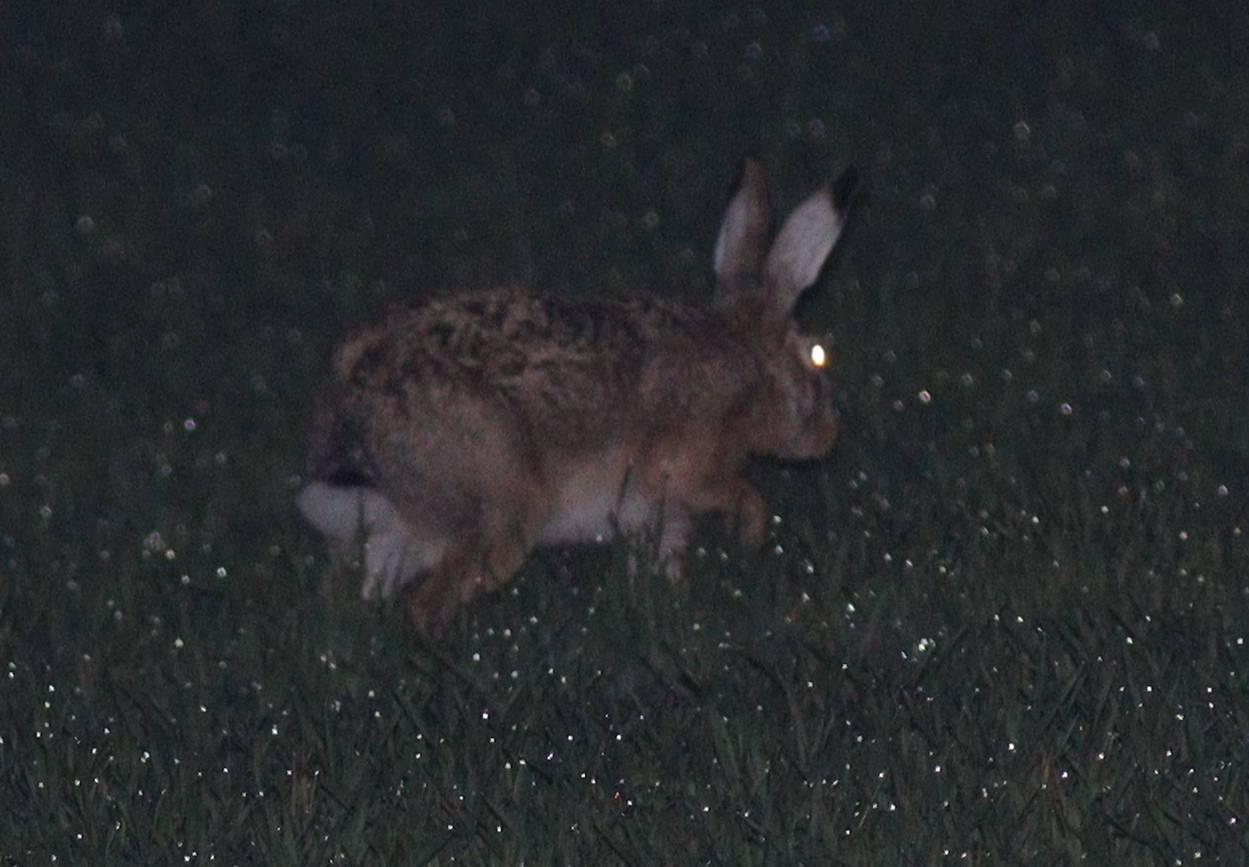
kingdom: Animalia
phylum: Chordata
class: Mammalia
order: Lagomorpha
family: Leporidae
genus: Lepus
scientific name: Lepus europaeus
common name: European hare
